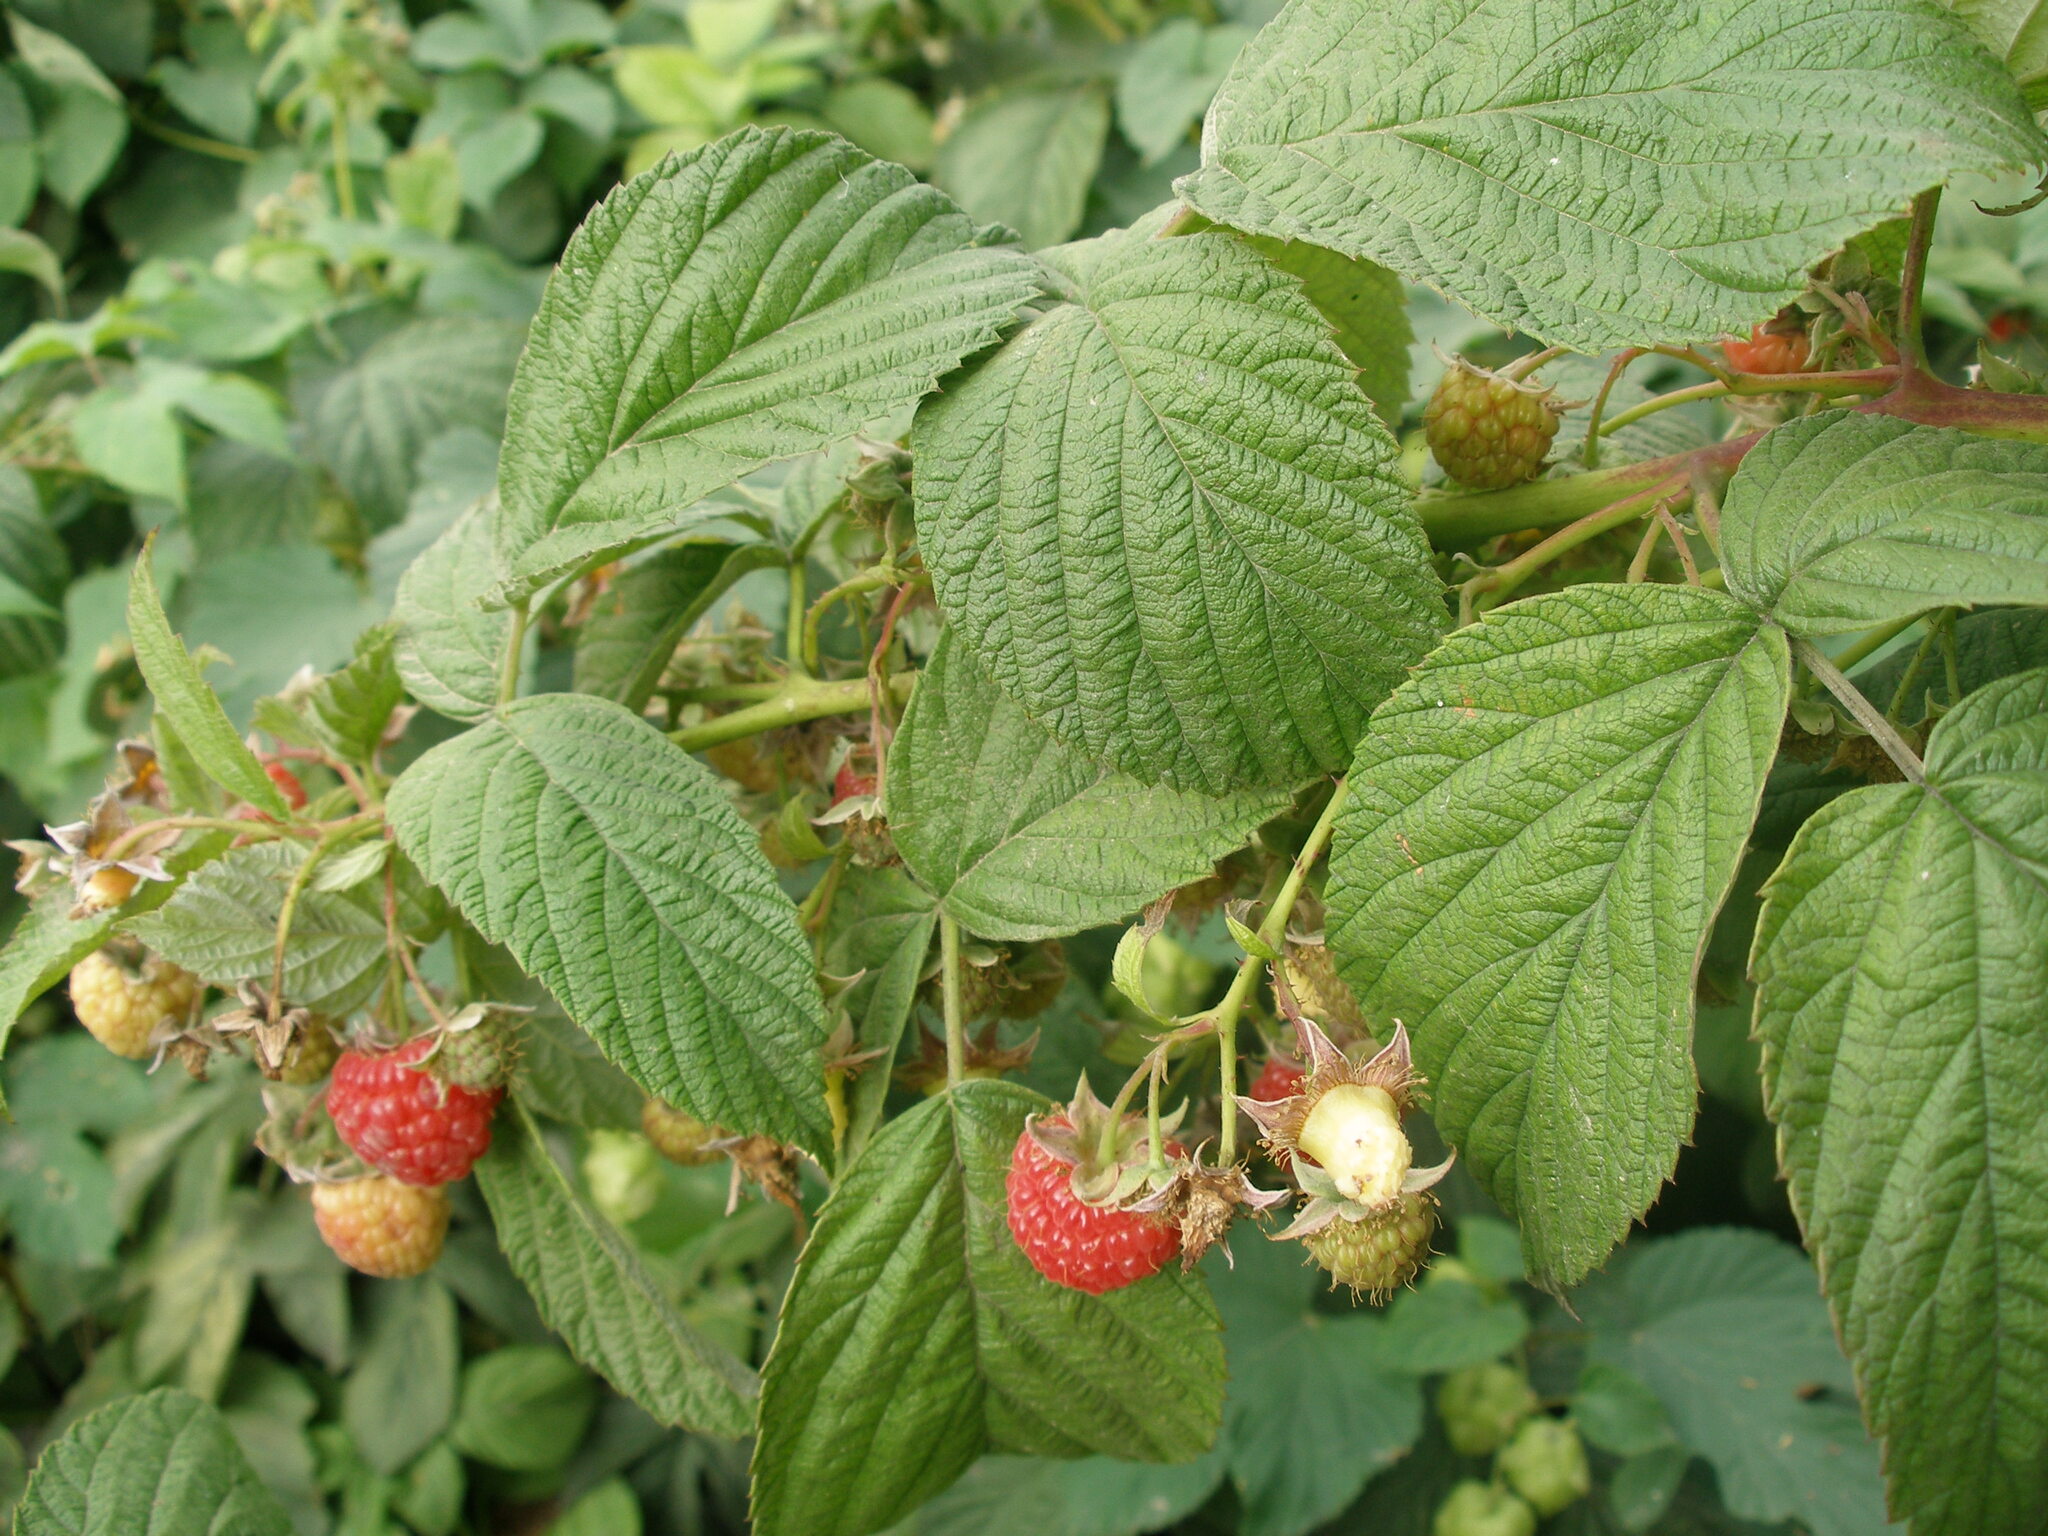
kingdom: Plantae
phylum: Tracheophyta
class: Magnoliopsida
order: Rosales
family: Rosaceae
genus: Rubus
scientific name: Rubus idaeus
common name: Raspberry
